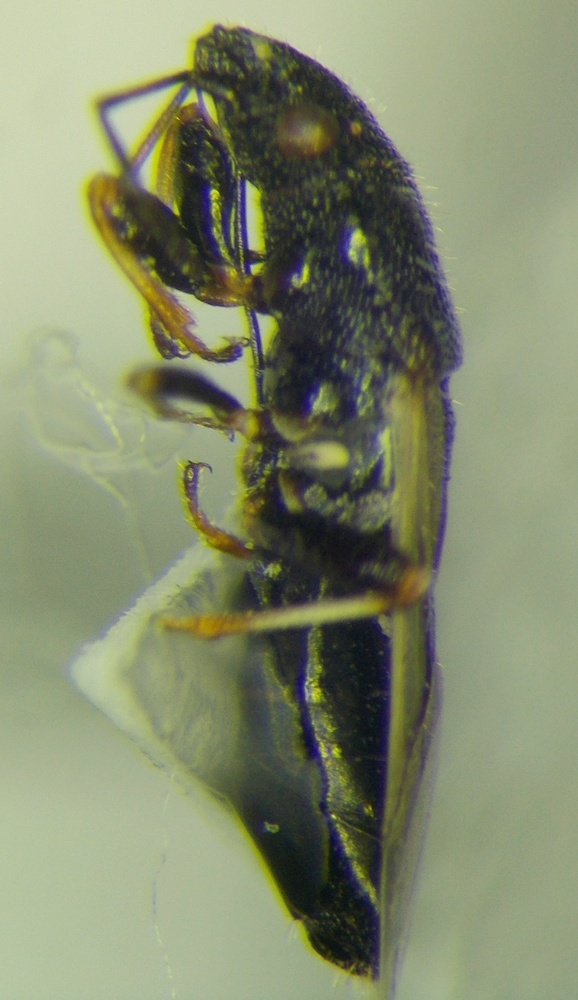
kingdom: Animalia
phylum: Arthropoda
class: Insecta
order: Hemiptera
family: Oxycarenidae
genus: Metopoplax
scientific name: Metopoplax origani
